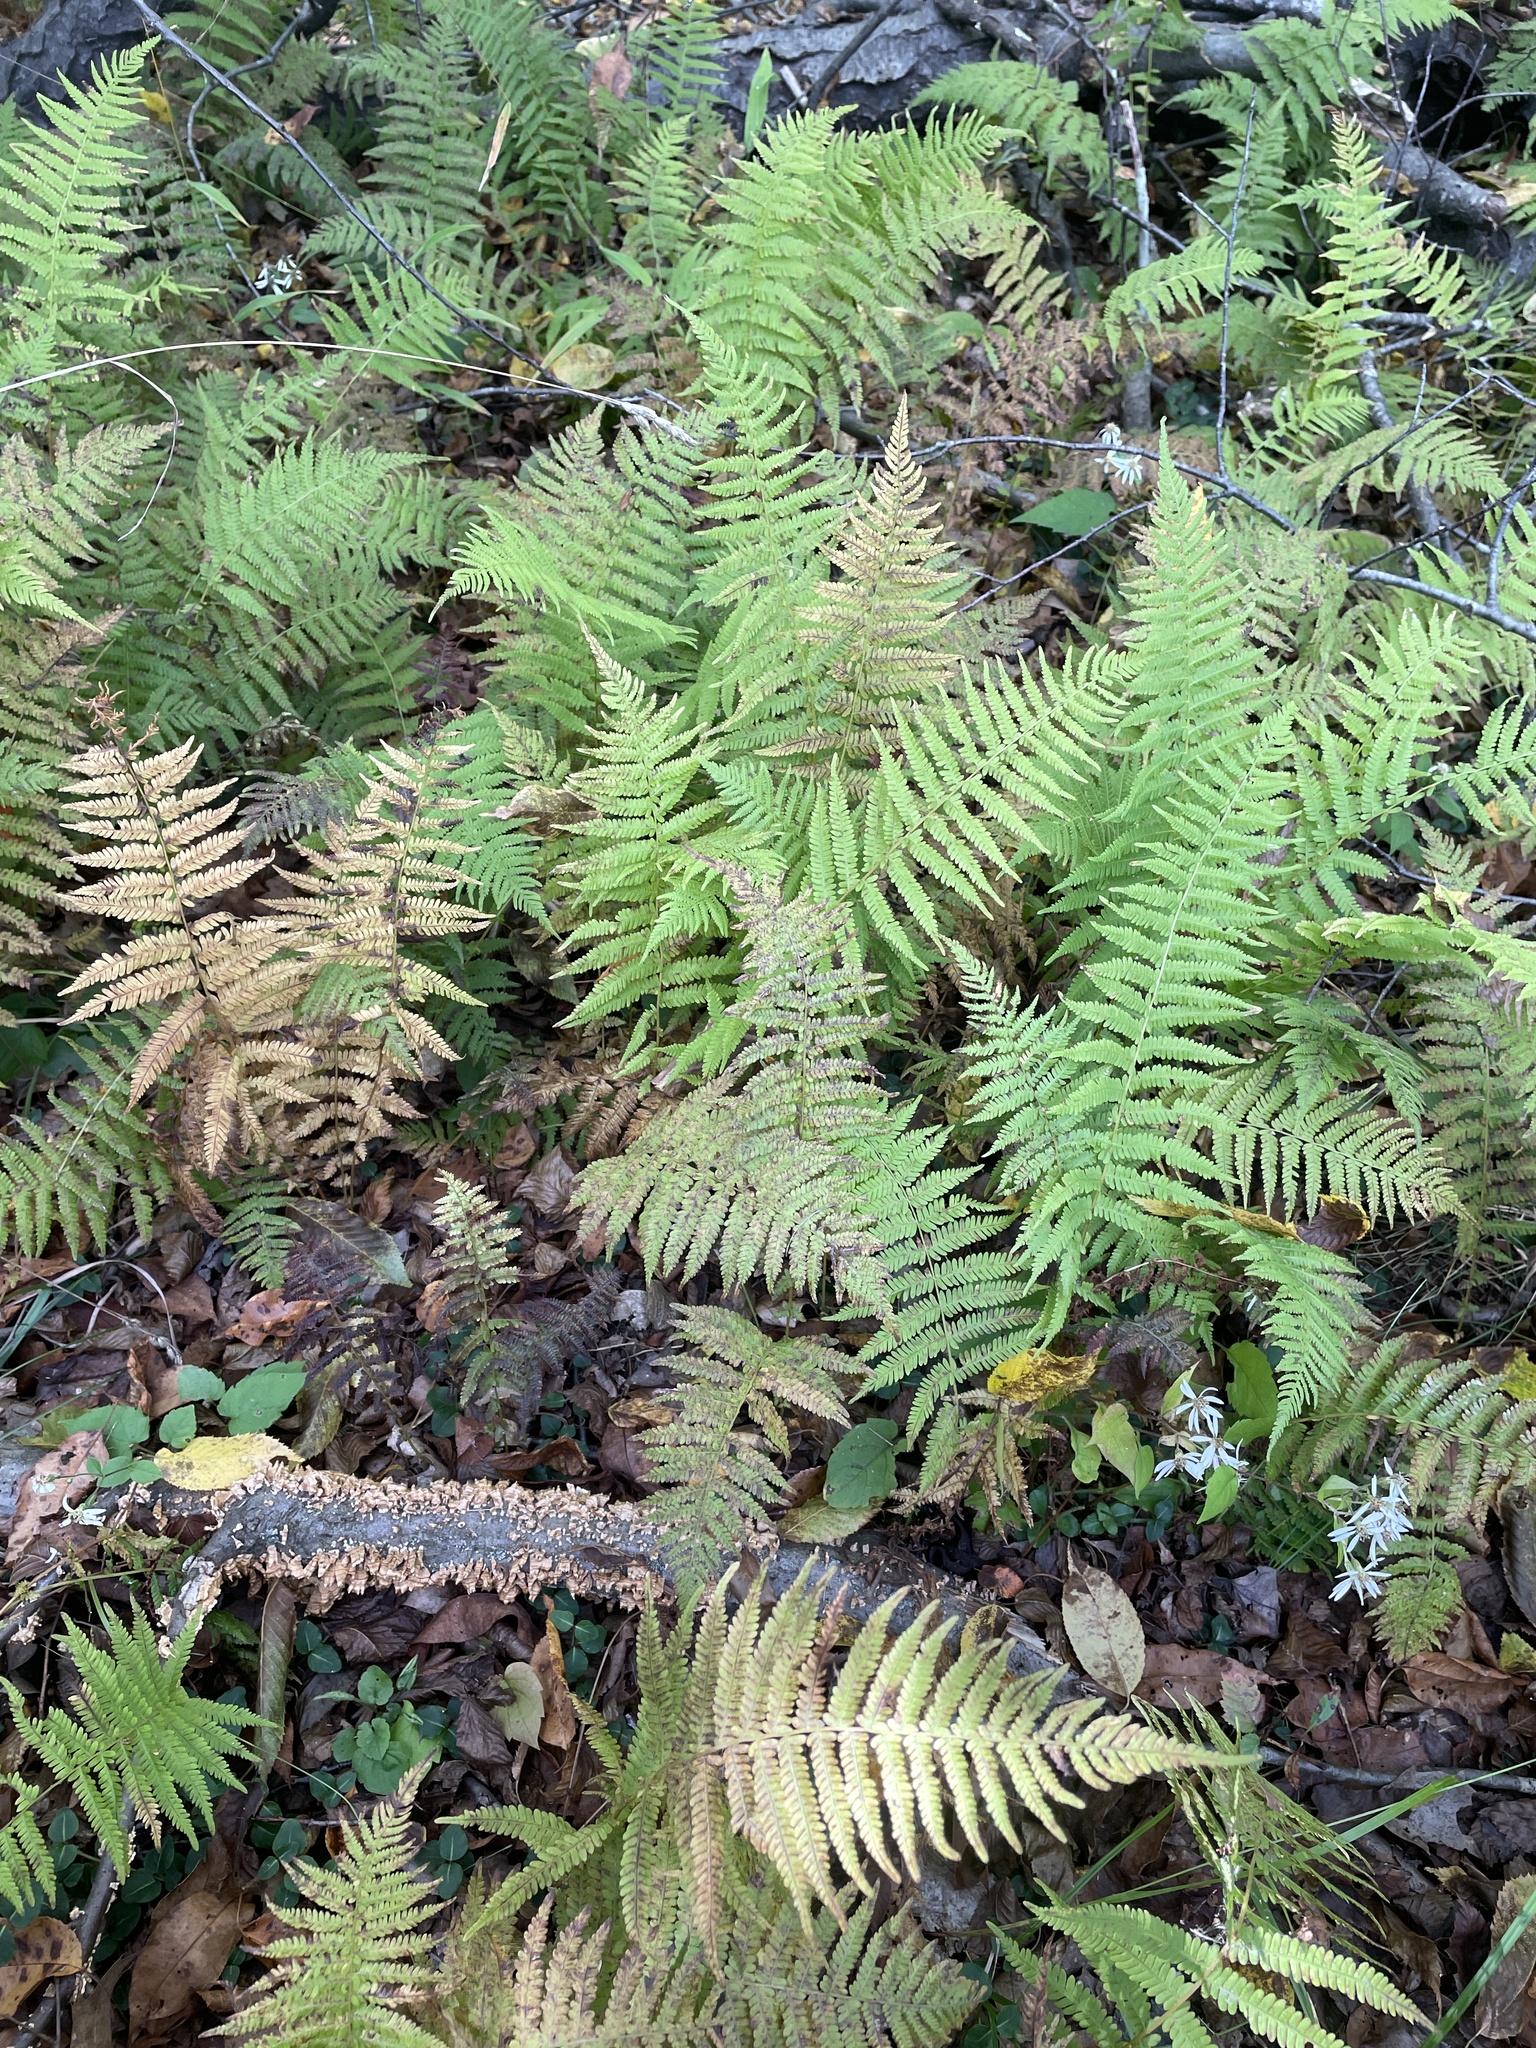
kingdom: Plantae
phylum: Tracheophyta
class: Polypodiopsida
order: Polypodiales
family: Thelypteridaceae
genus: Amauropelta
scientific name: Amauropelta noveboracensis
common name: New york fern
